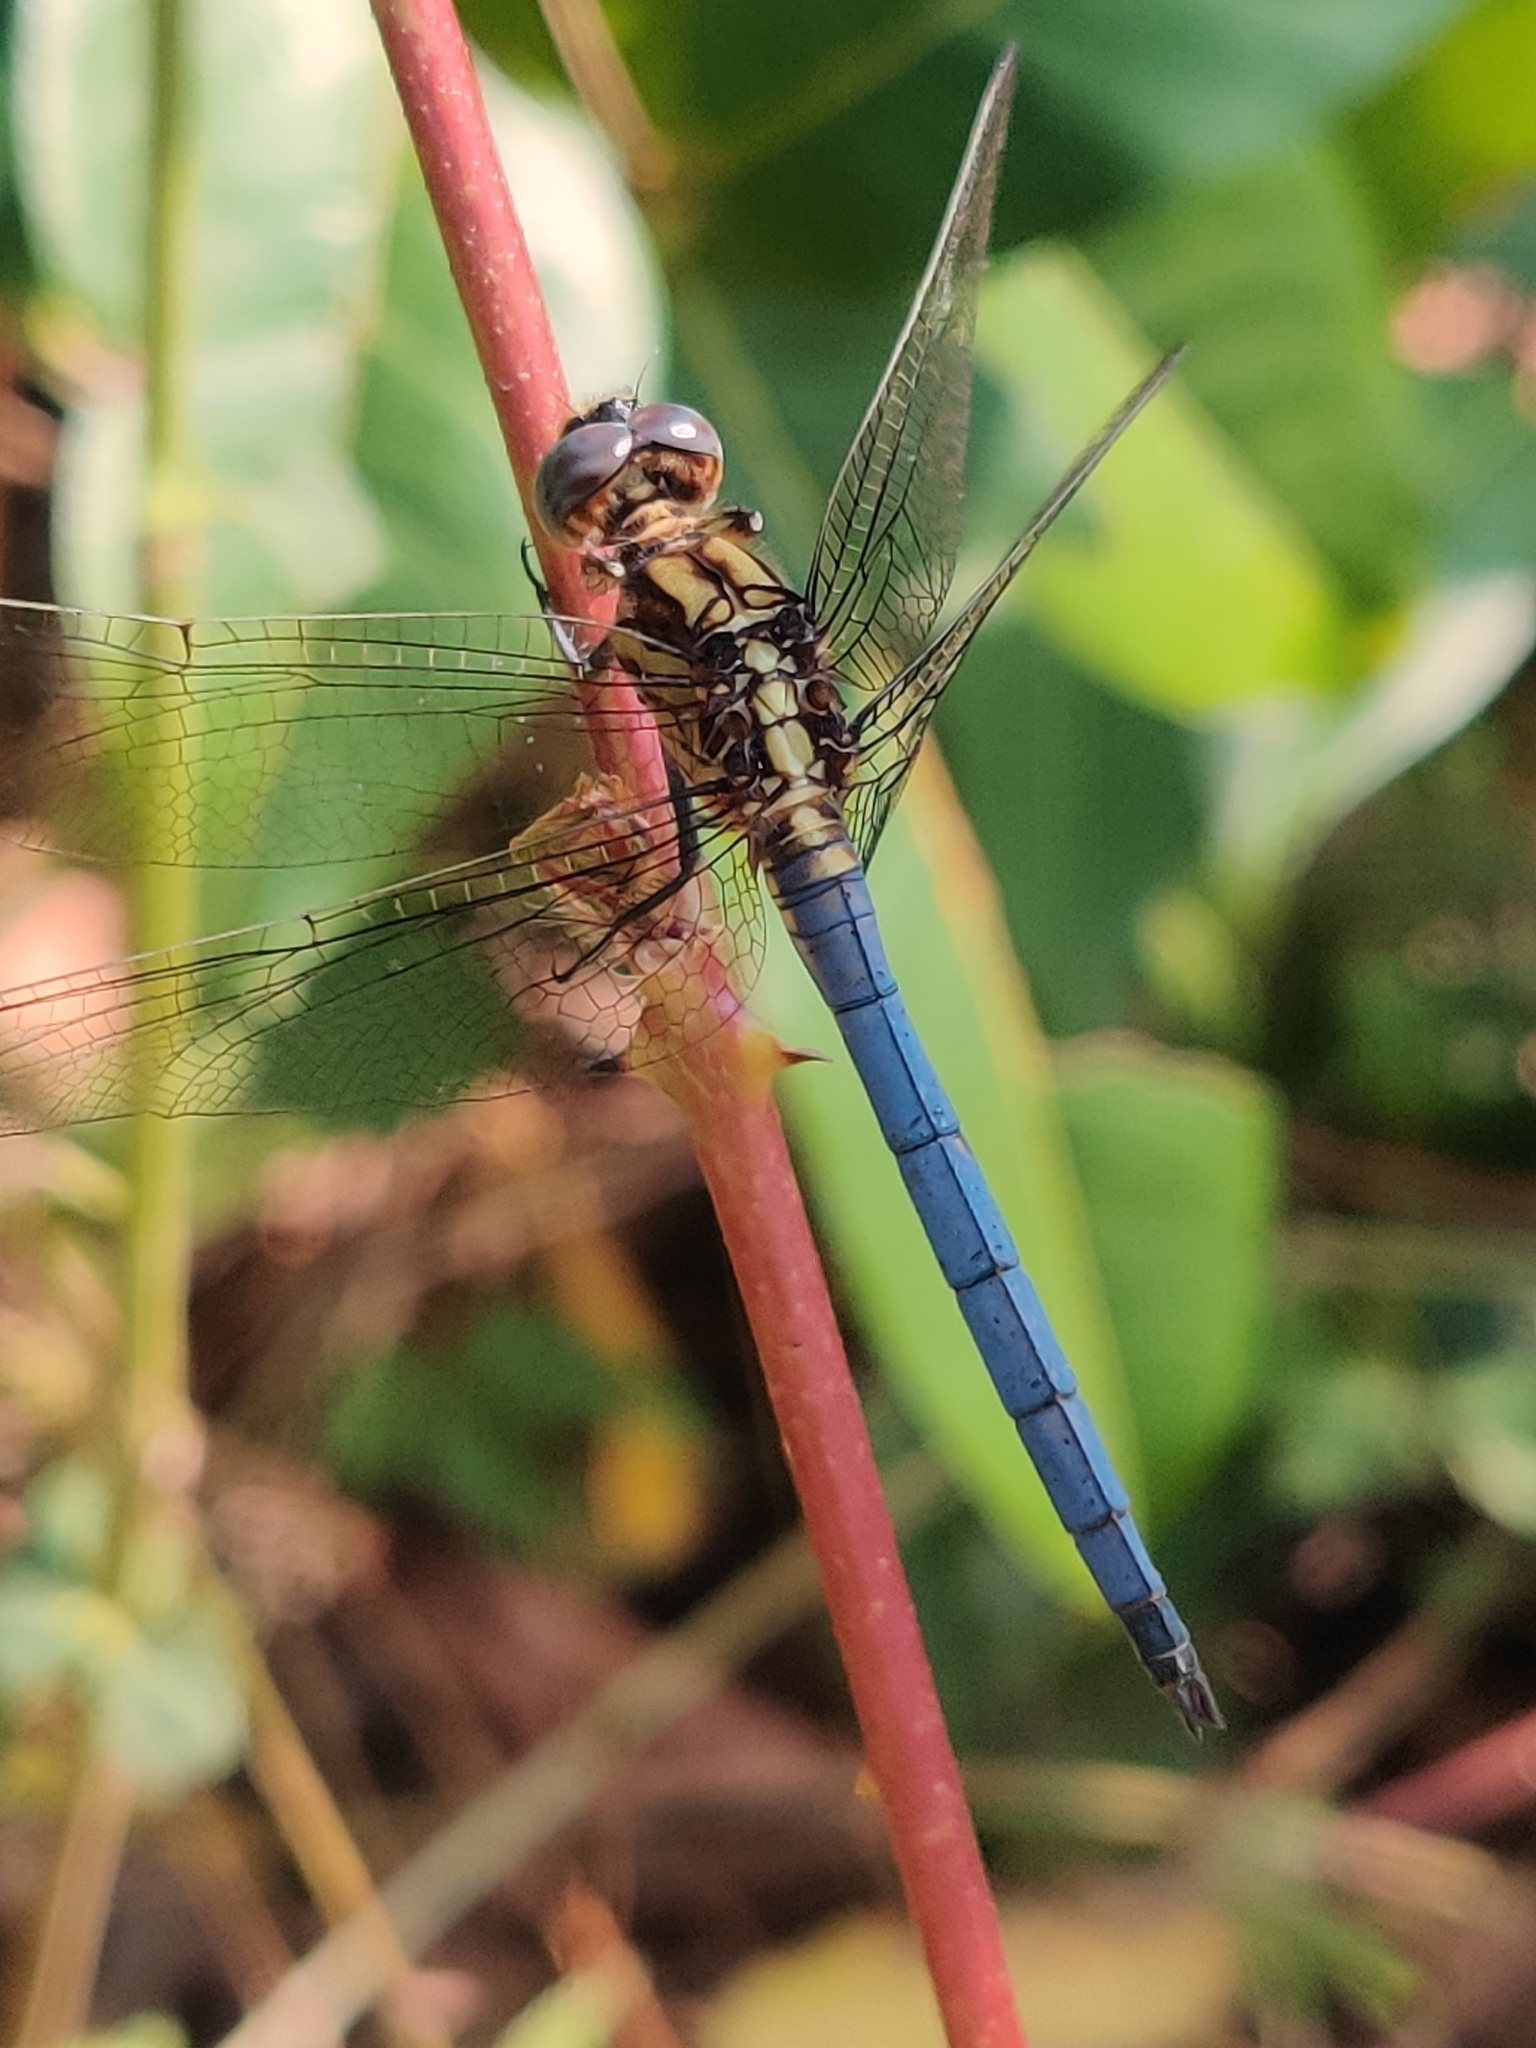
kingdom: Animalia
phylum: Arthropoda
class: Insecta
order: Odonata
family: Libellulidae
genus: Orthetrum
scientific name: Orthetrum luzonicum
